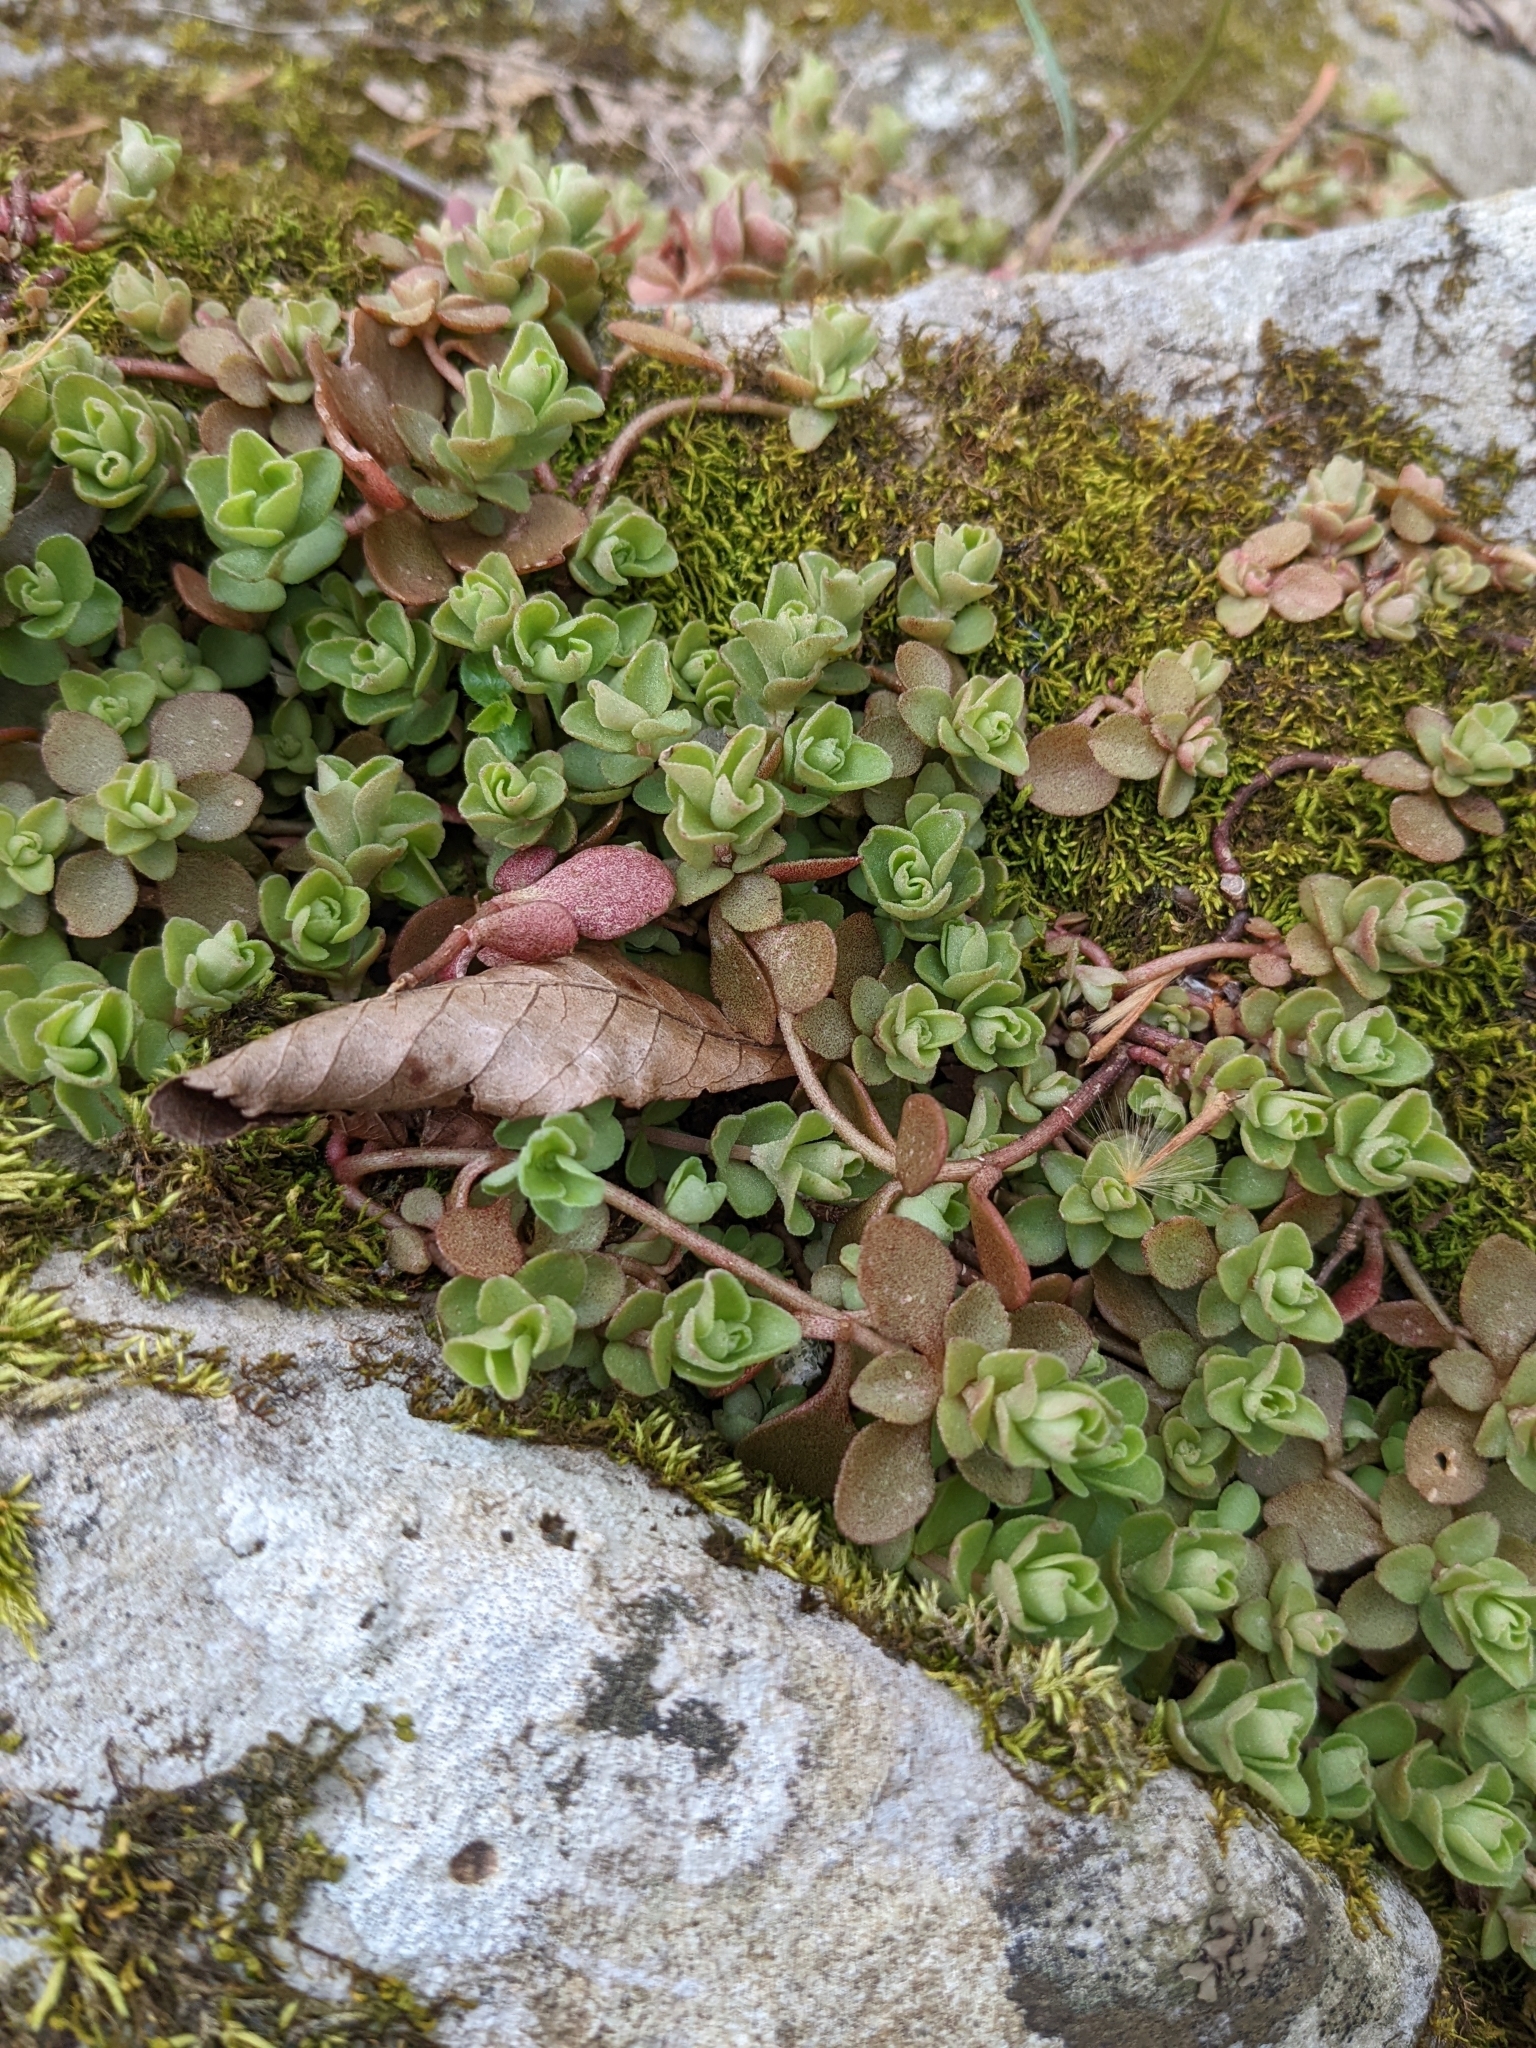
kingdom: Plantae
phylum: Tracheophyta
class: Magnoliopsida
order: Saxifragales
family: Crassulaceae
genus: Sedum
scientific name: Sedum ternatum
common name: Wild stonecrop
